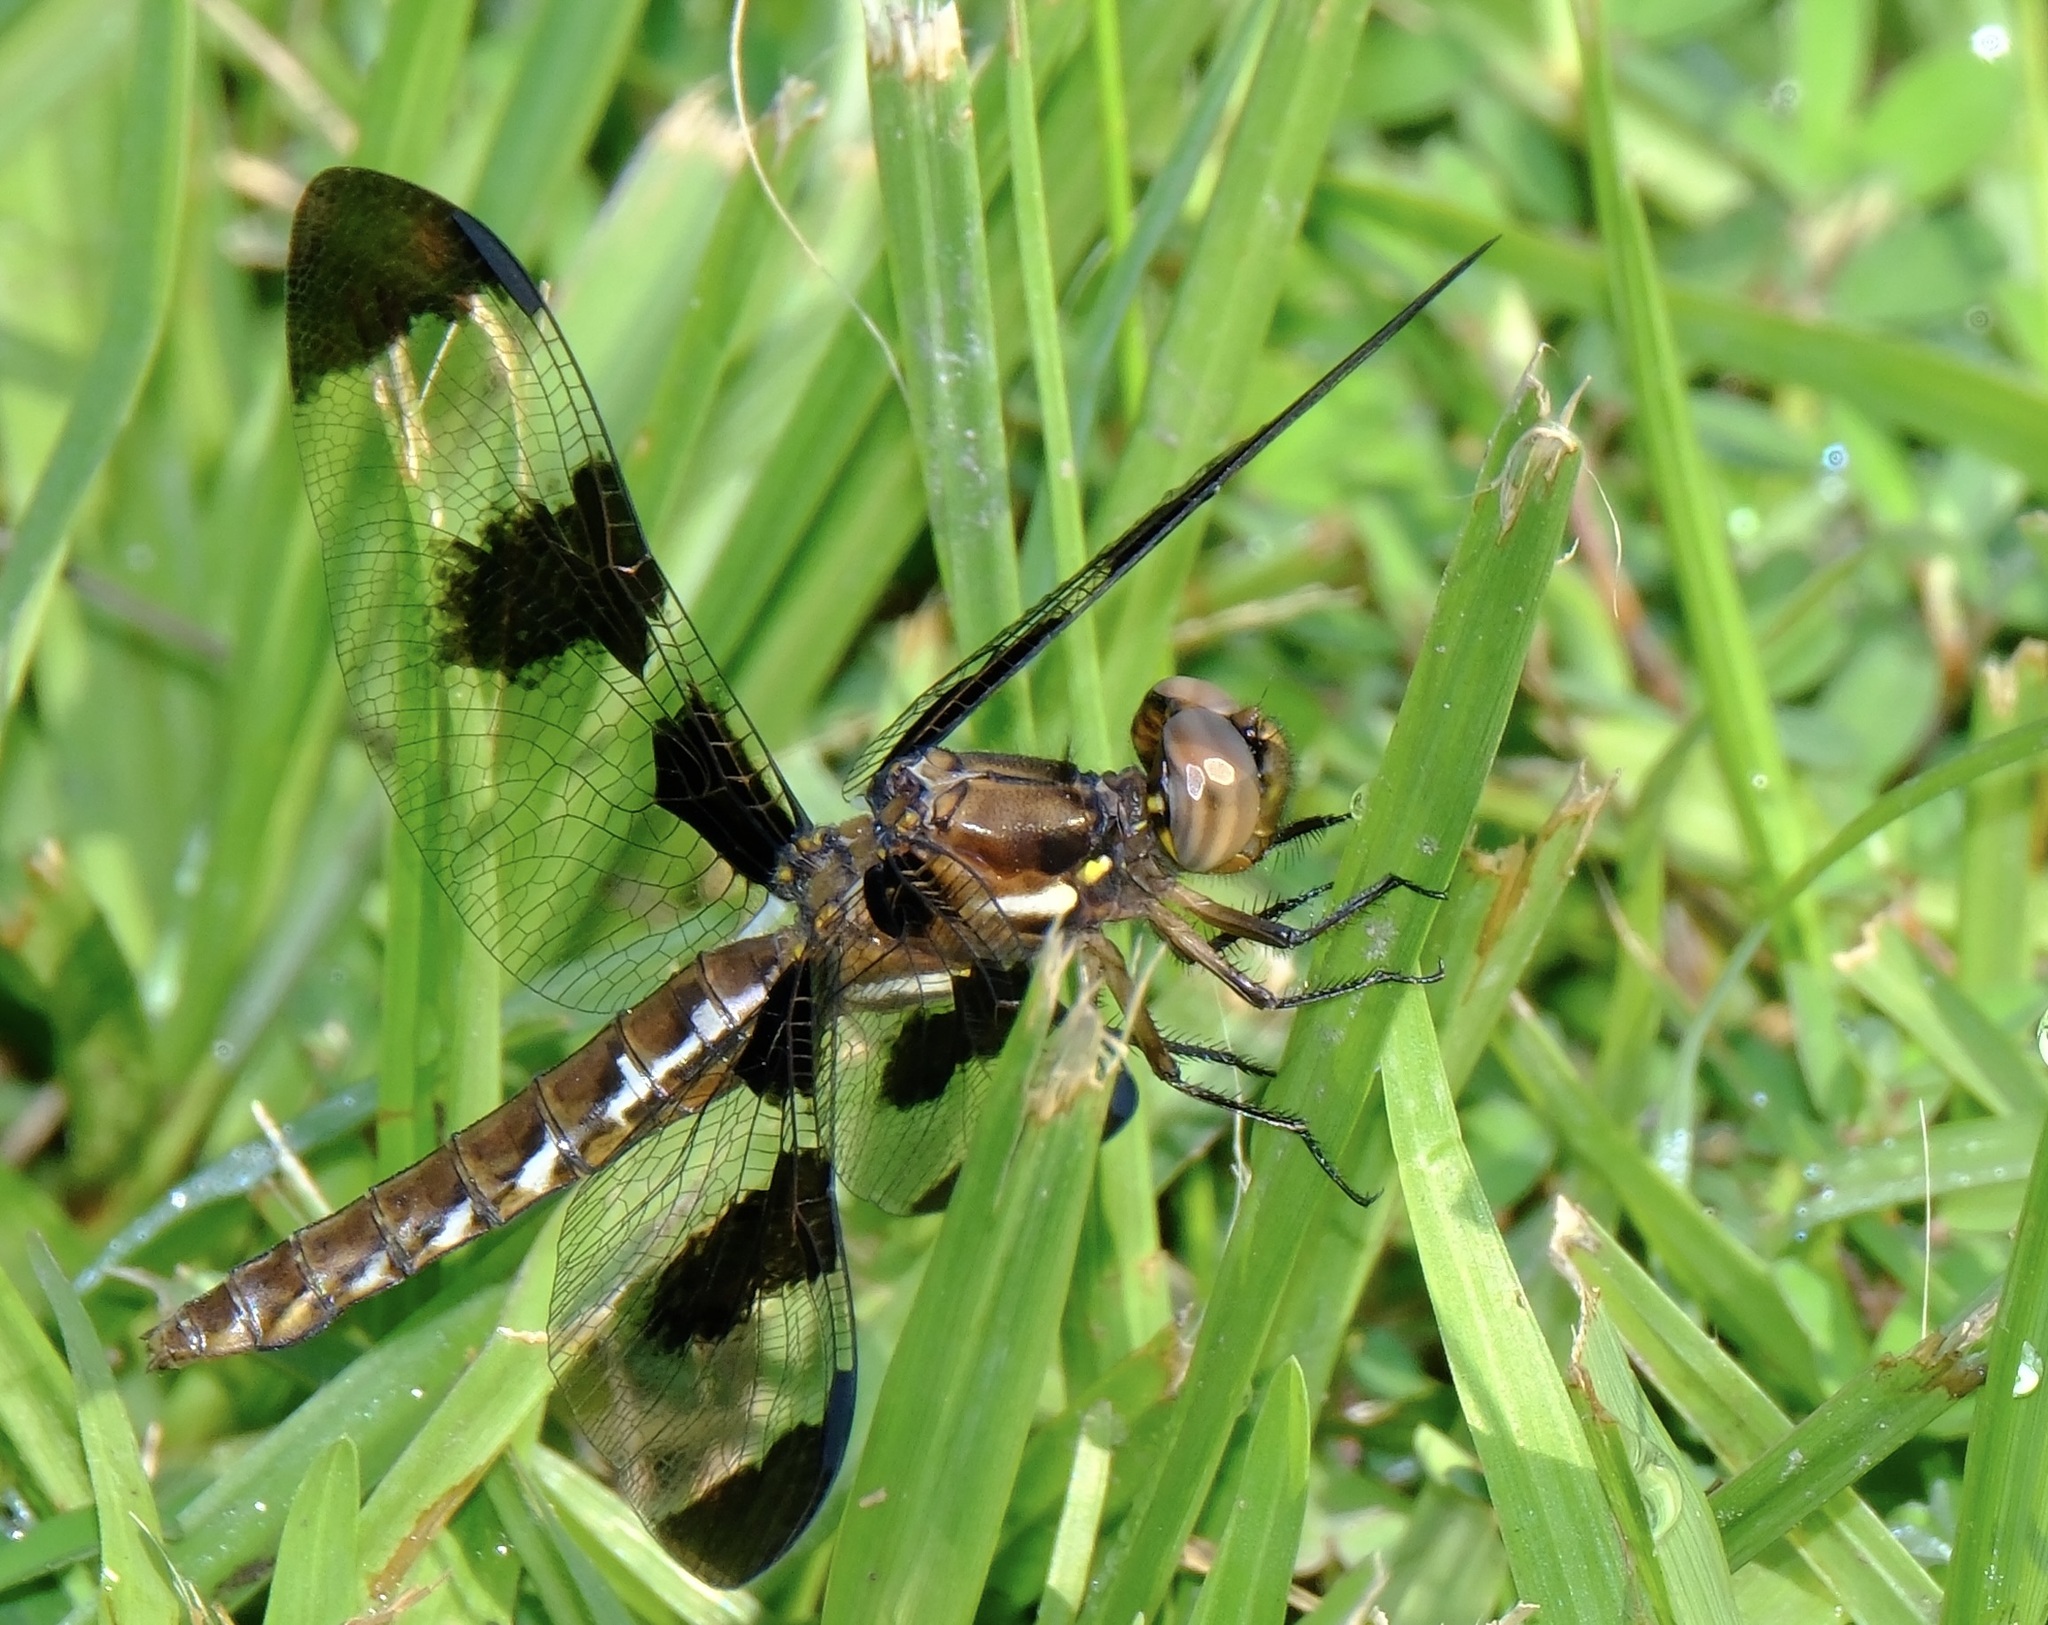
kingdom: Animalia
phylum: Arthropoda
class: Insecta
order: Odonata
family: Libellulidae
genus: Plathemis
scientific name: Plathemis lydia
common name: Common whitetail
